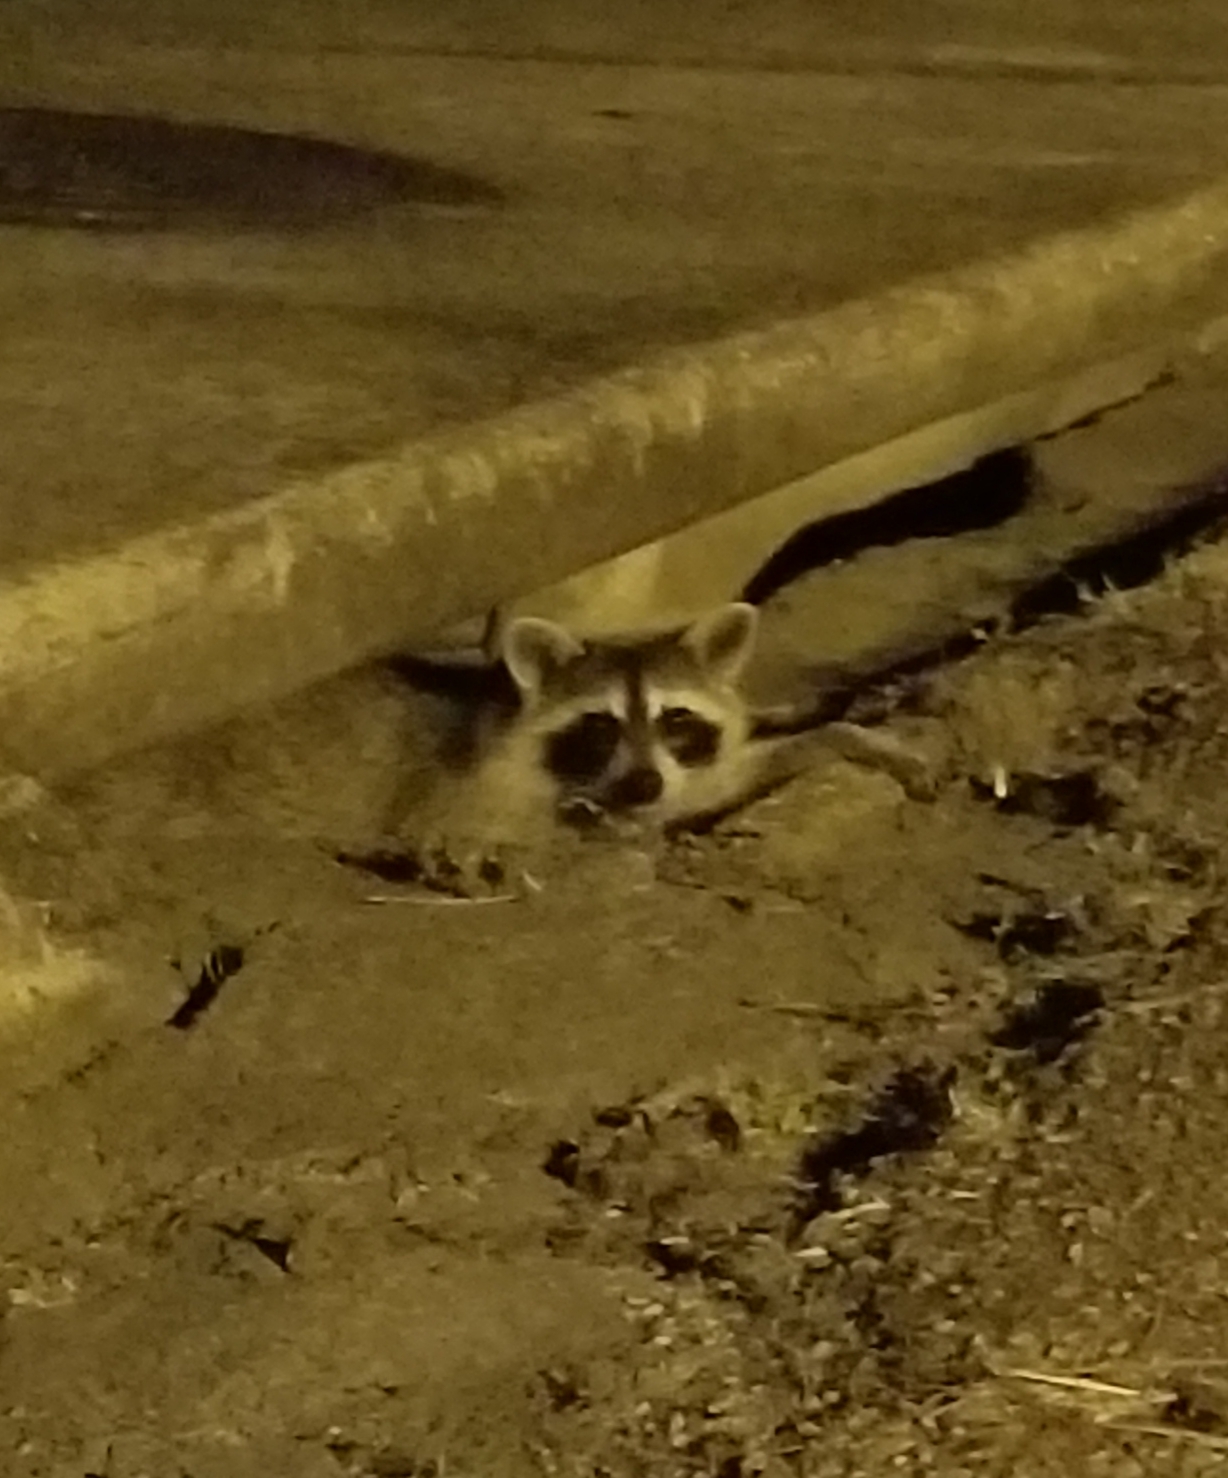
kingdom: Animalia
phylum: Chordata
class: Mammalia
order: Carnivora
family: Procyonidae
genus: Procyon
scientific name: Procyon lotor
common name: Raccoon
